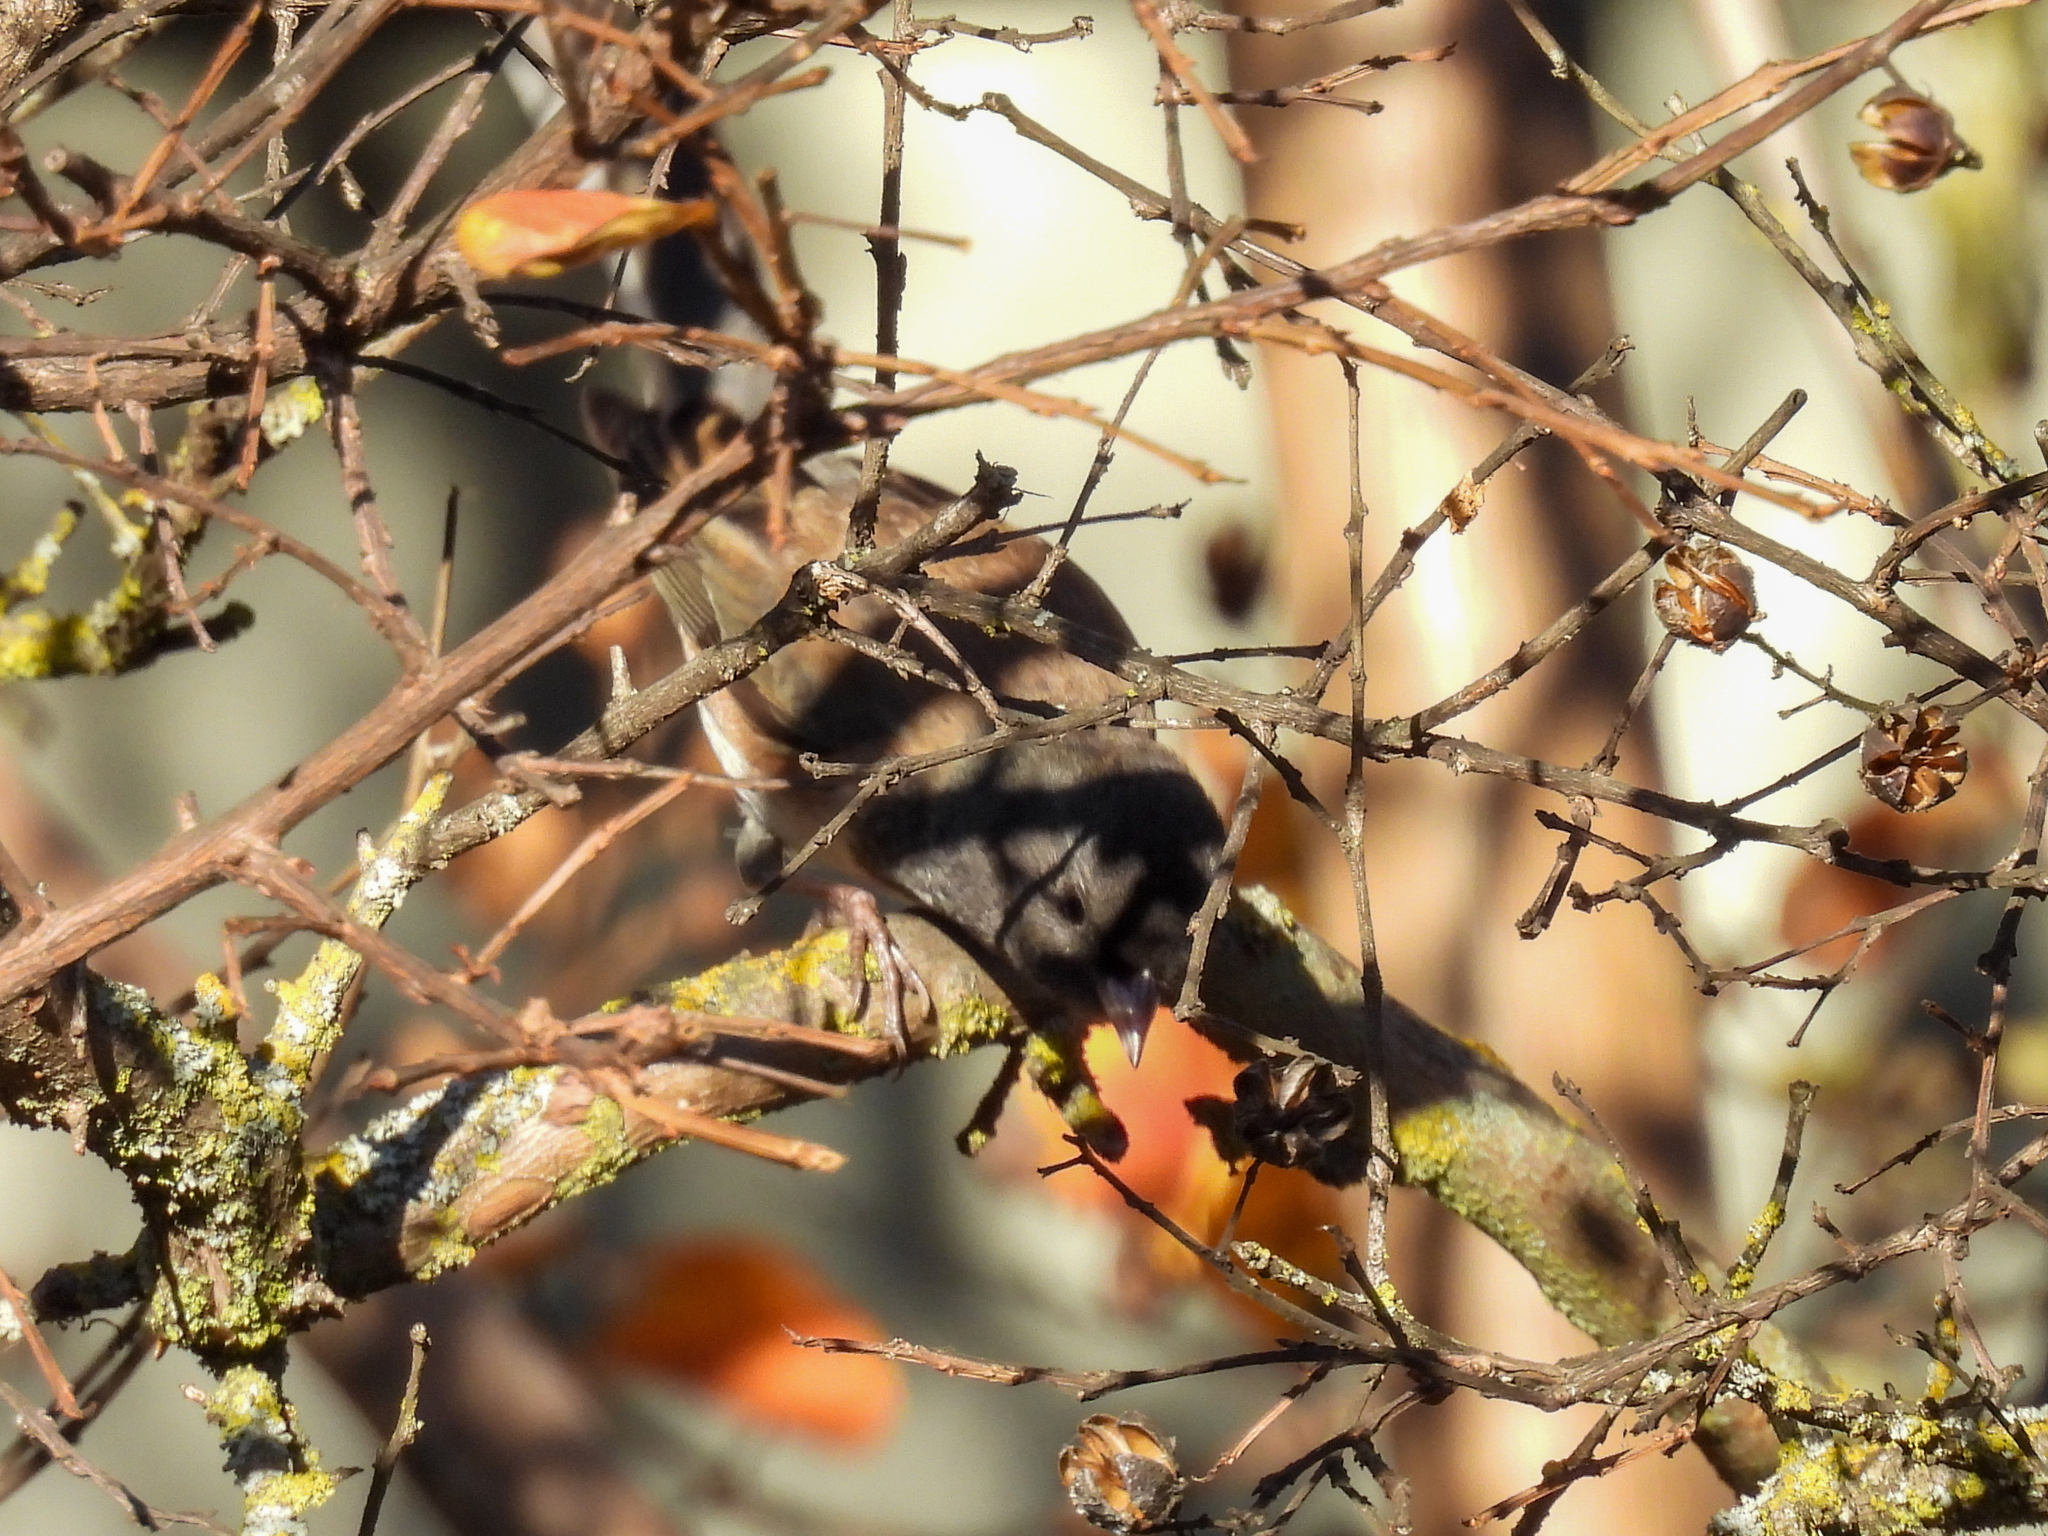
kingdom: Animalia
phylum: Chordata
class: Aves
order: Passeriformes
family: Passerellidae
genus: Junco
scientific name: Junco hyemalis
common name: Dark-eyed junco
